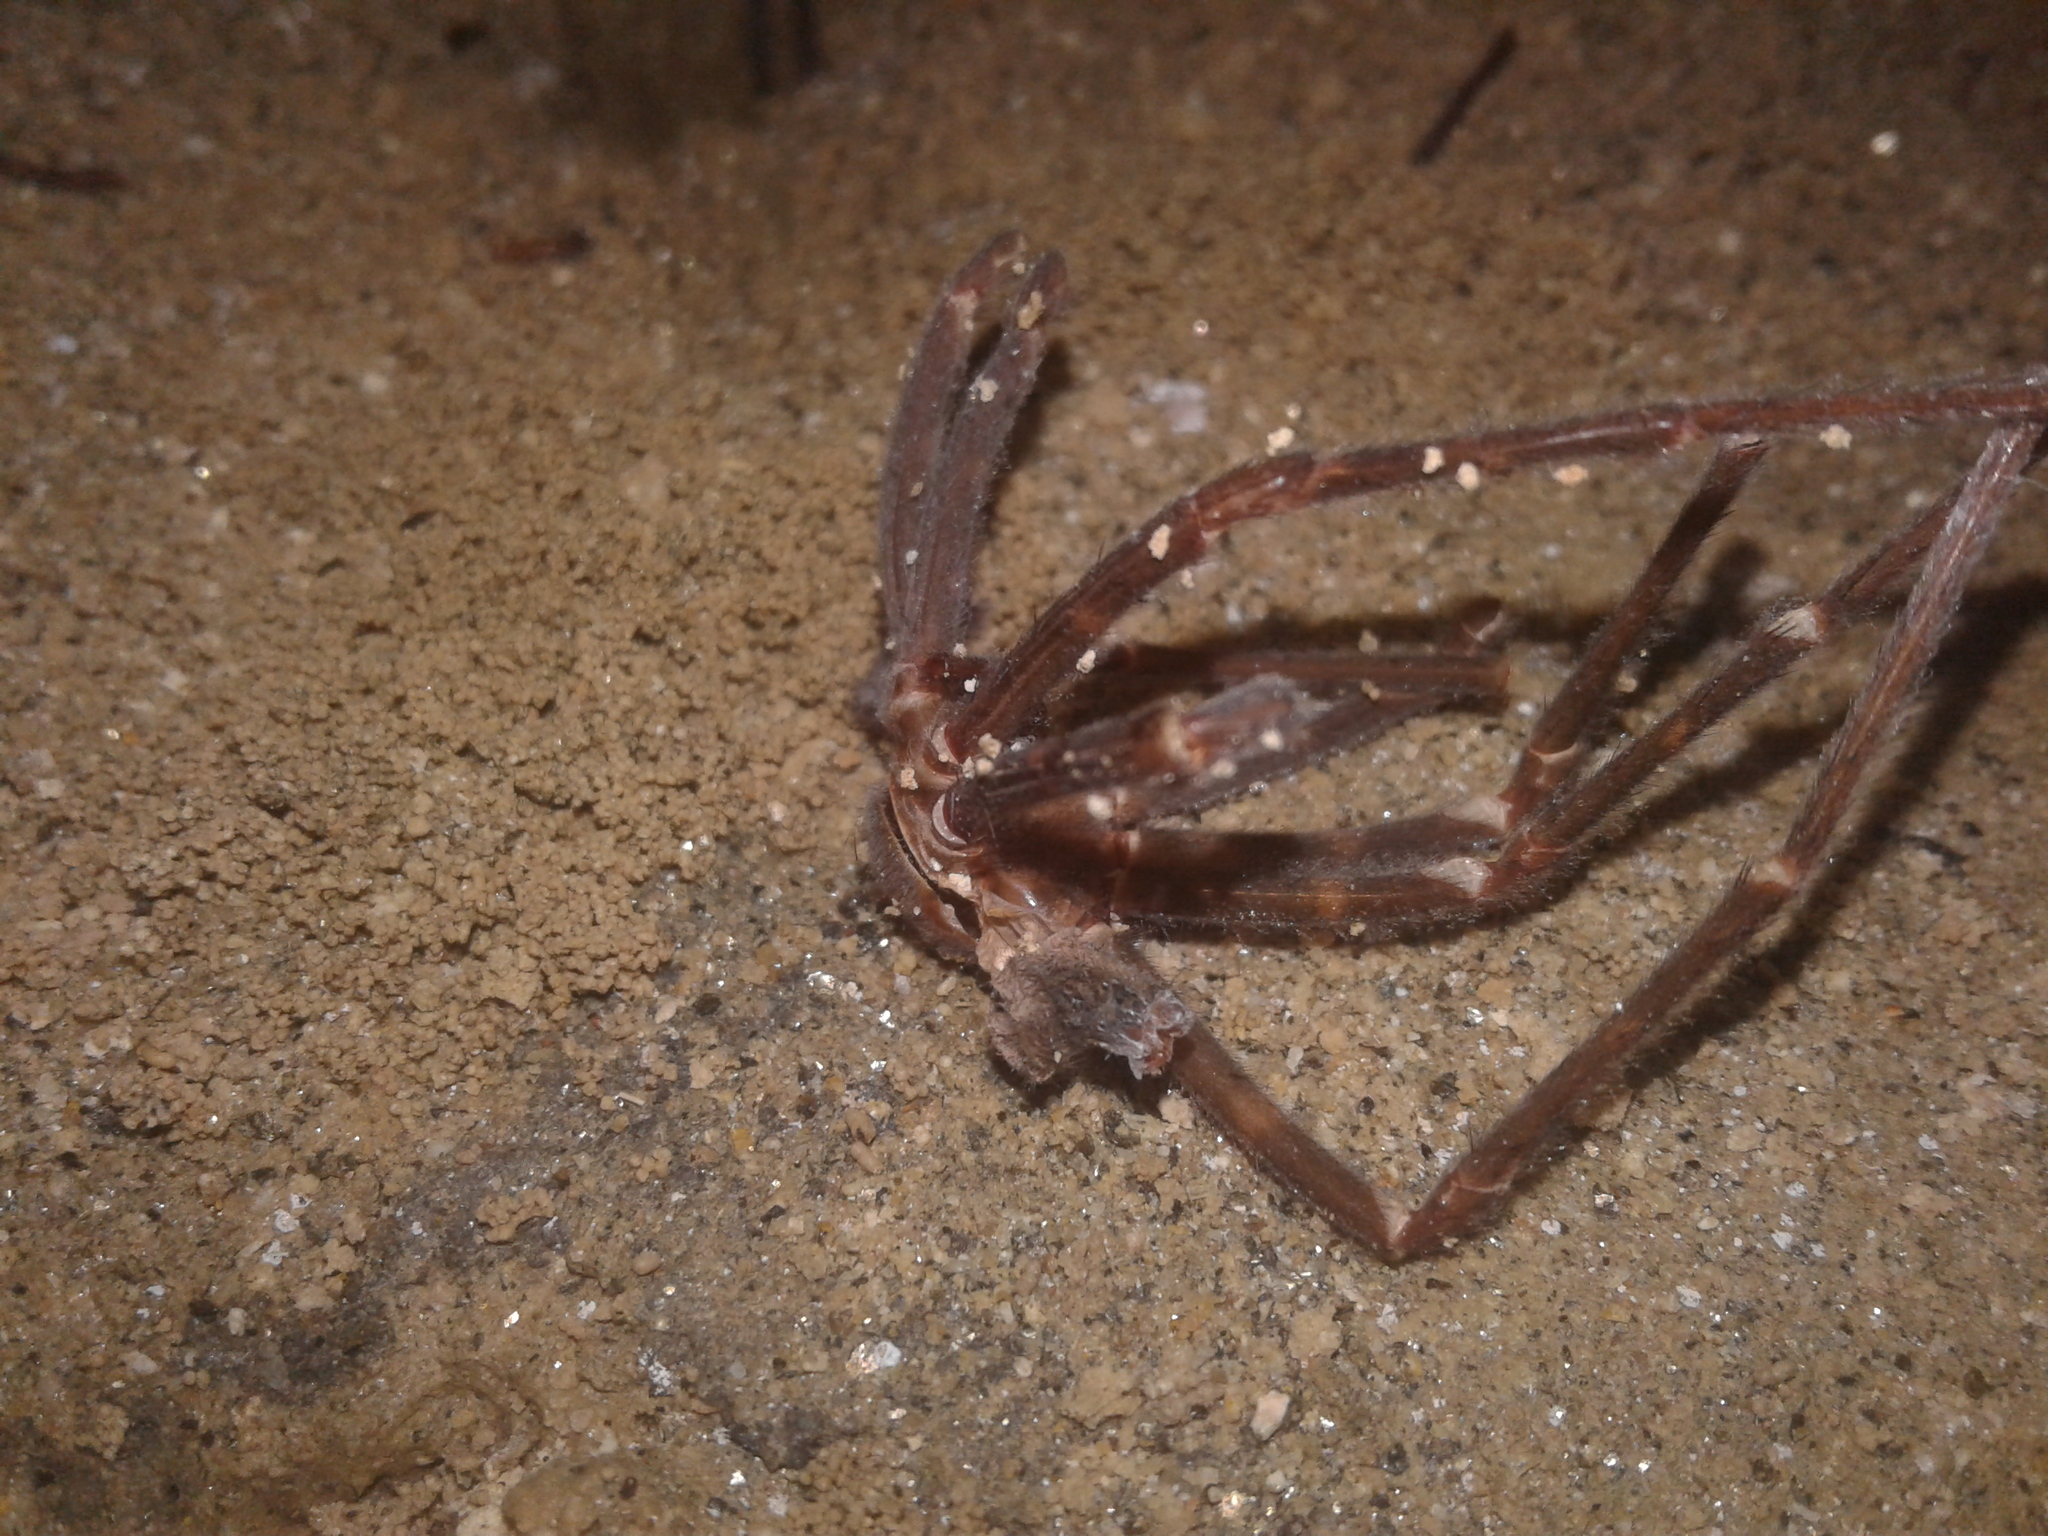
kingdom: Animalia
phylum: Arthropoda
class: Arachnida
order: Araneae
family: Gradungulidae
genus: Spelungula
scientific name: Spelungula cavernicola
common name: Nelson cave spider
